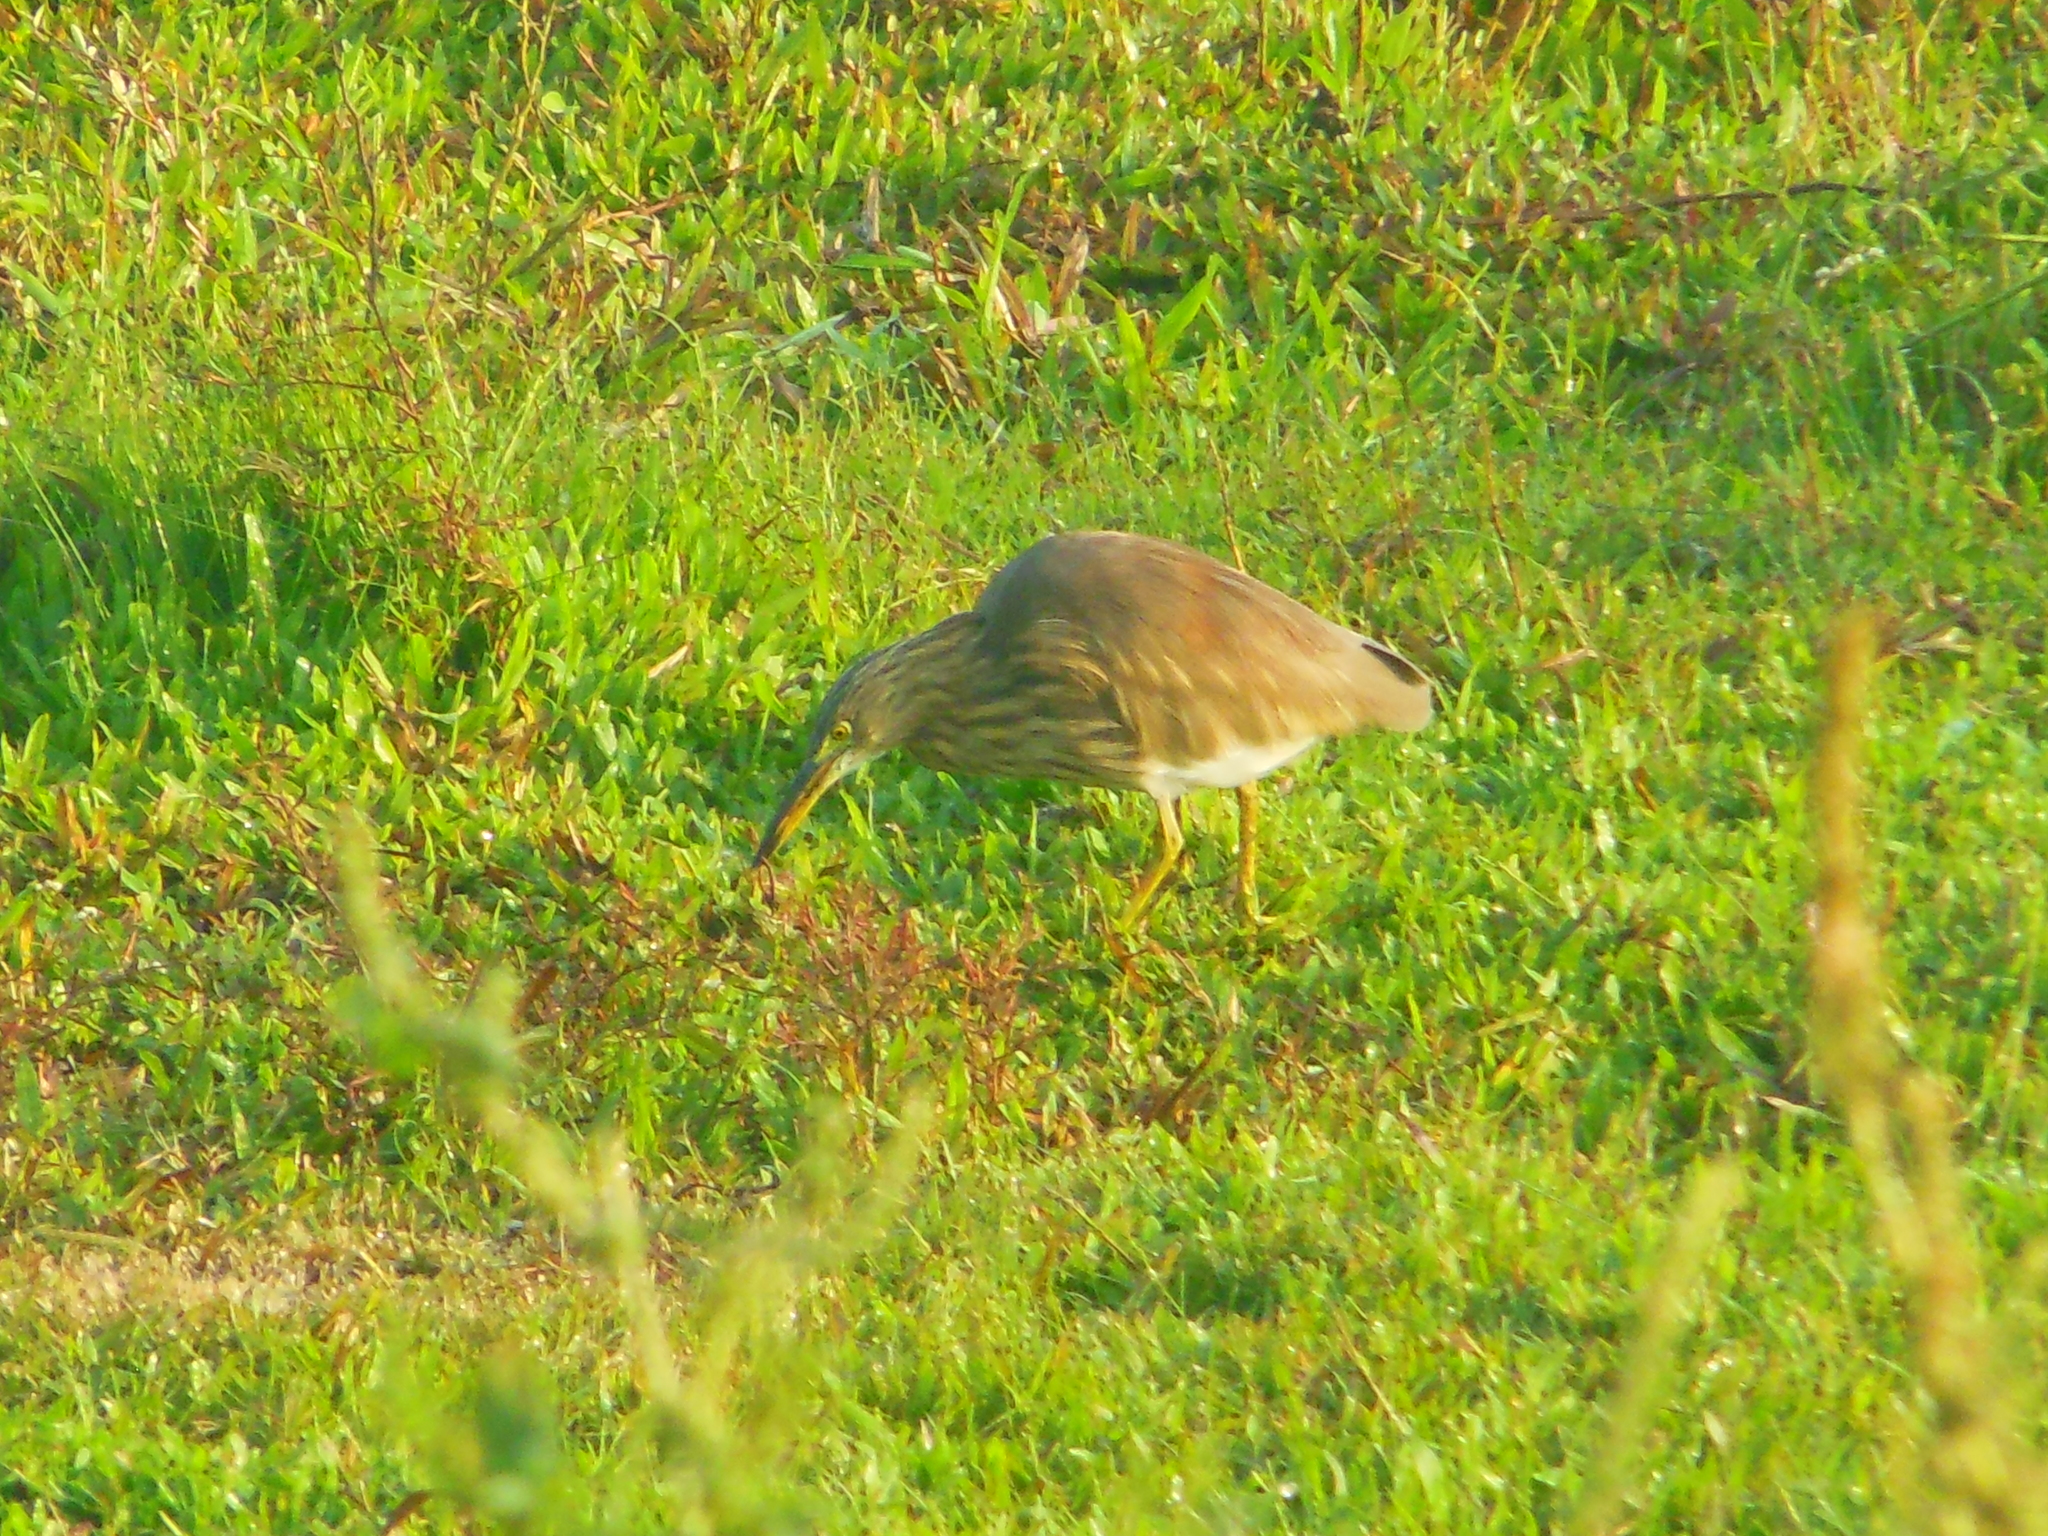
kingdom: Animalia
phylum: Chordata
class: Aves
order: Pelecaniformes
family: Ardeidae
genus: Ardeola
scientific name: Ardeola grayii
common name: Indian pond heron
